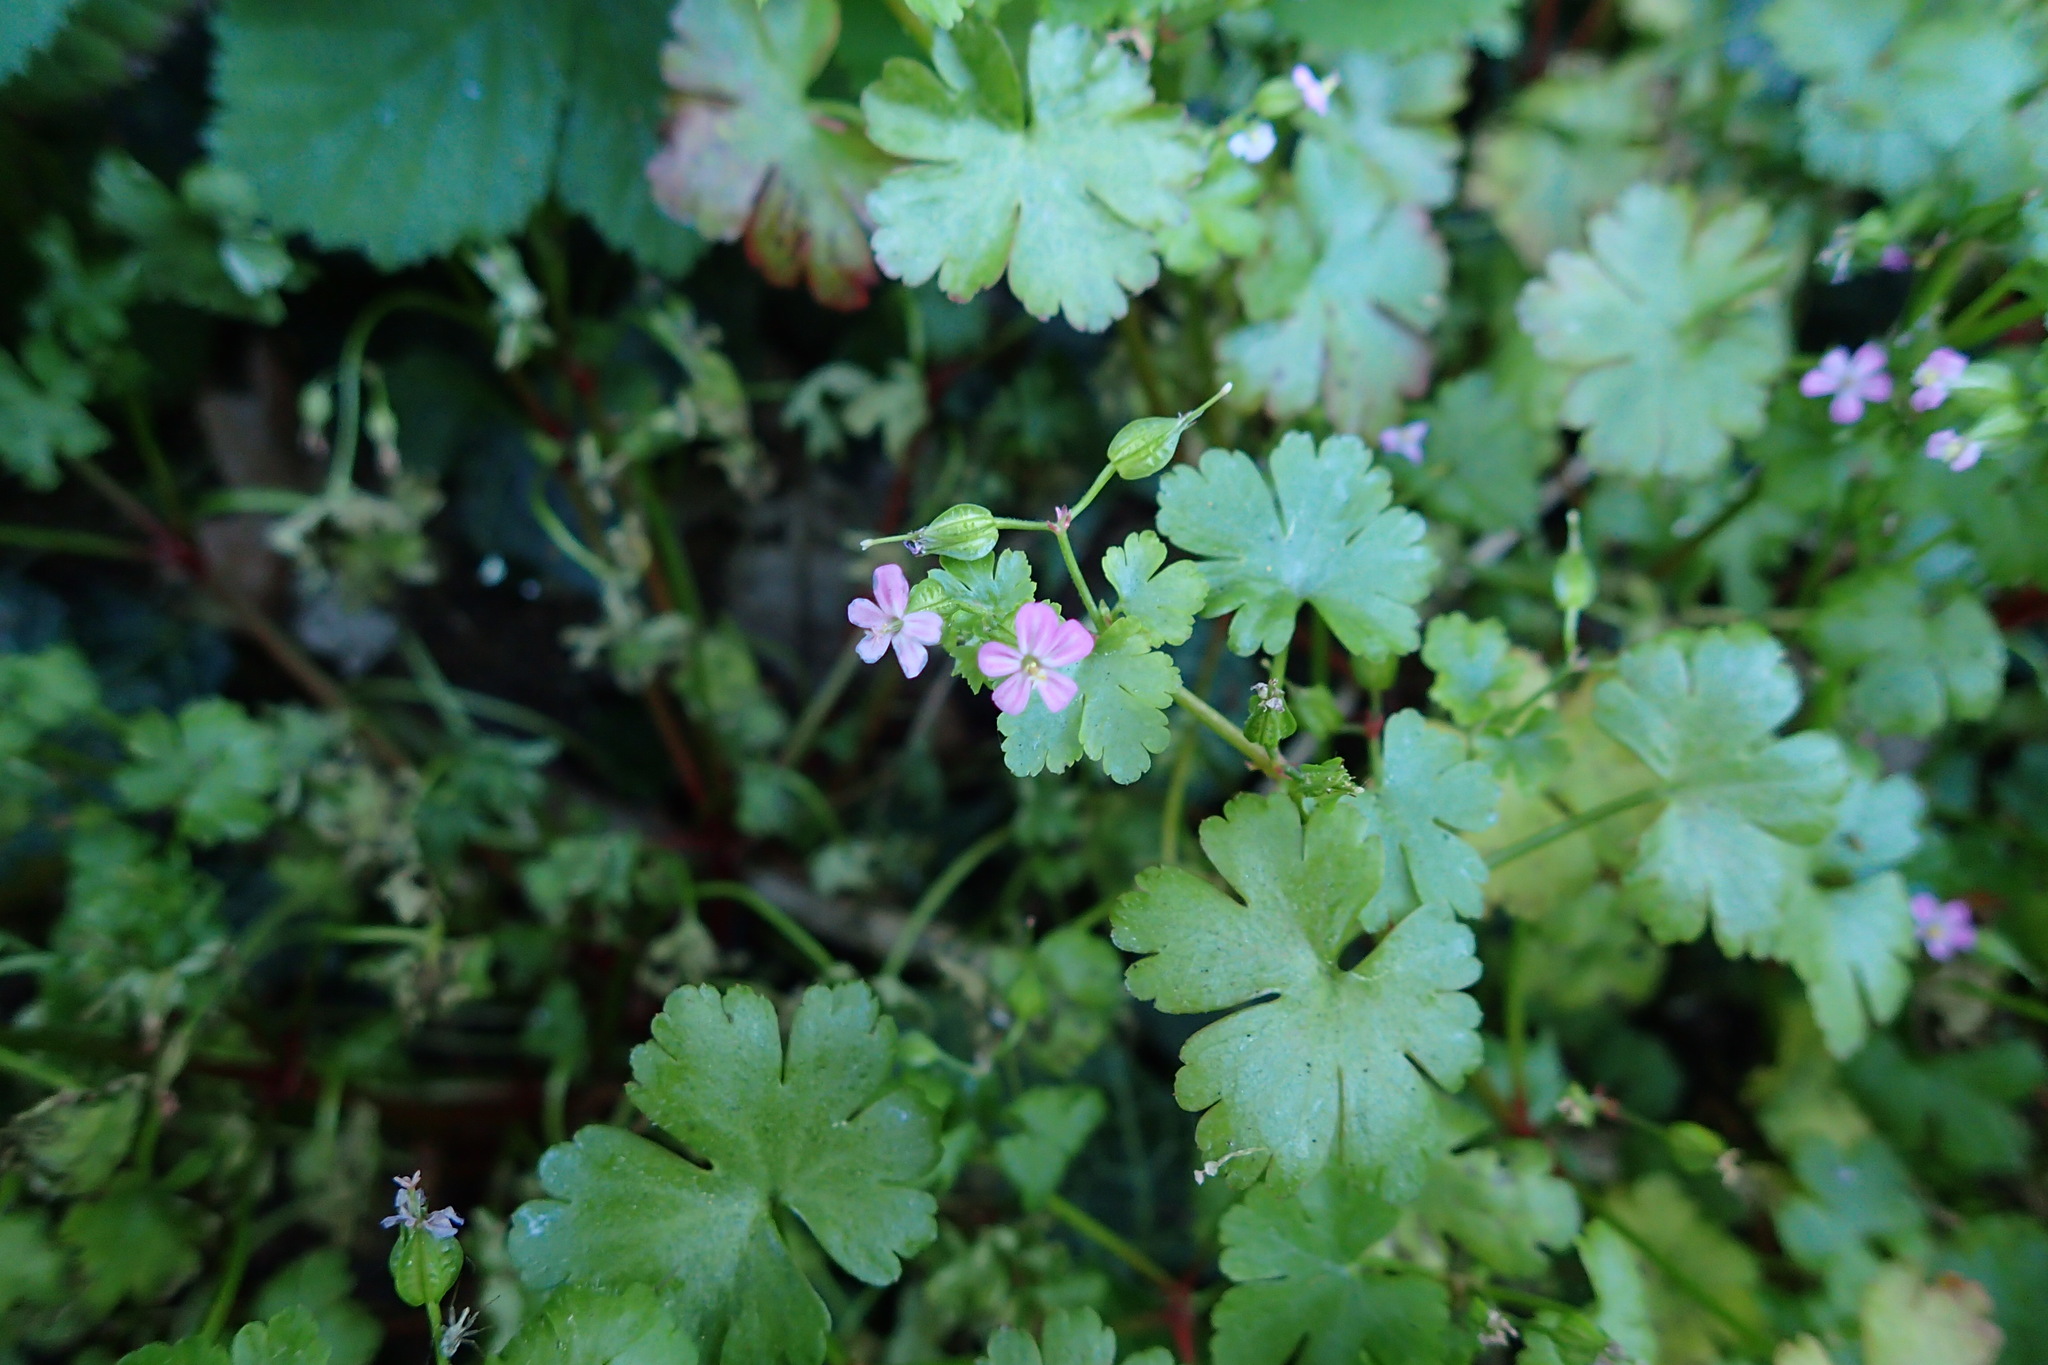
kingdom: Plantae
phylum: Tracheophyta
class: Magnoliopsida
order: Geraniales
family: Geraniaceae
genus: Geranium
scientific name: Geranium lucidum
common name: Shining crane's-bill
